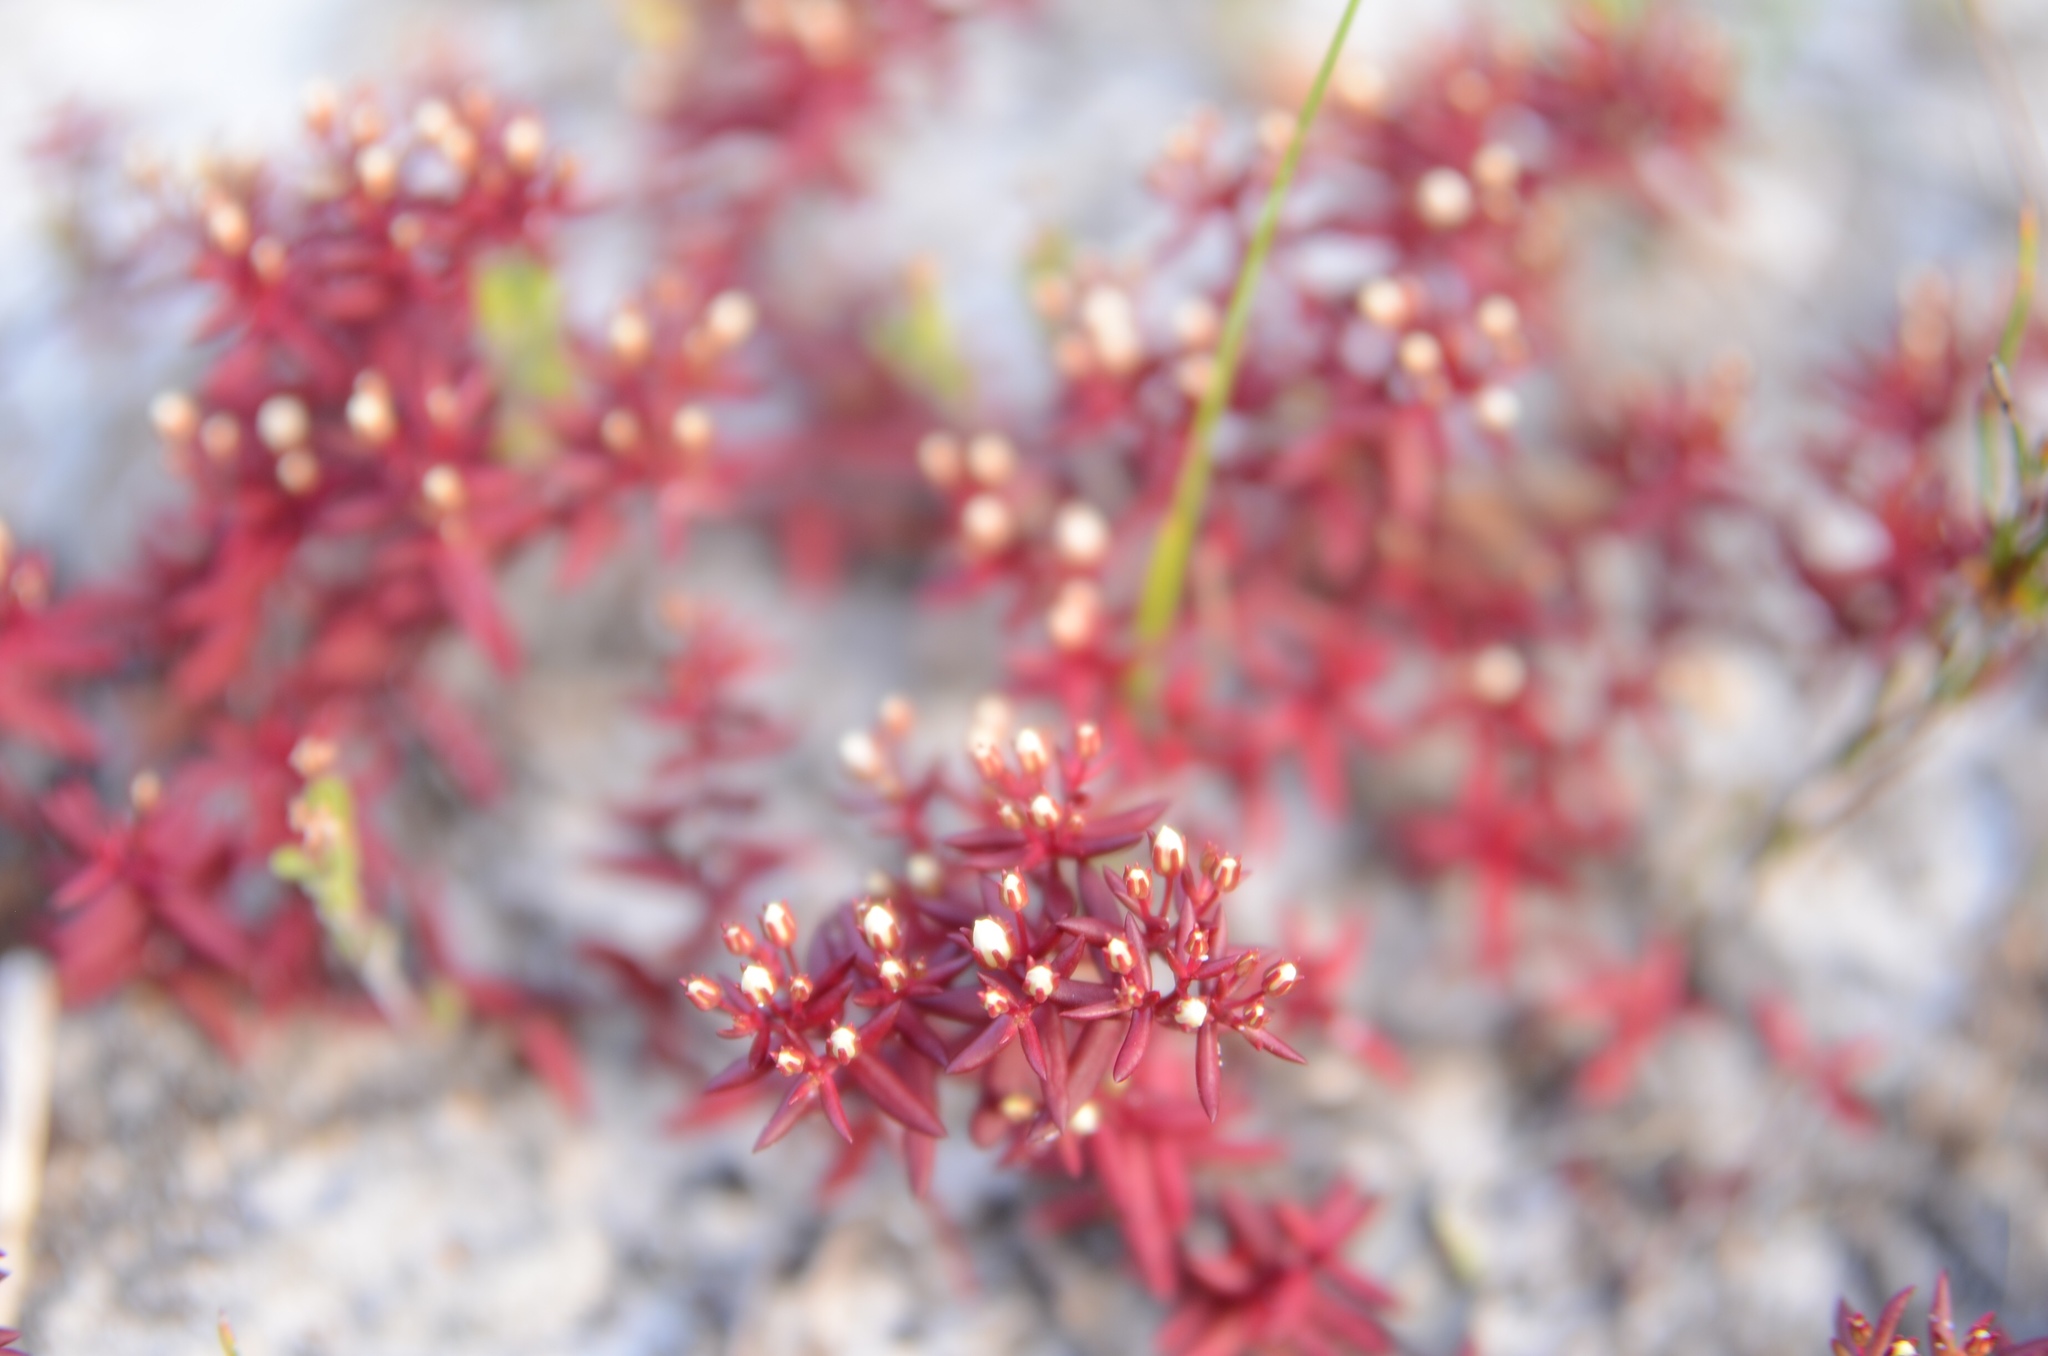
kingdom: Plantae
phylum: Tracheophyta
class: Magnoliopsida
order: Saxifragales
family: Crassulaceae
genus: Crassula
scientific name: Crassula expansa
